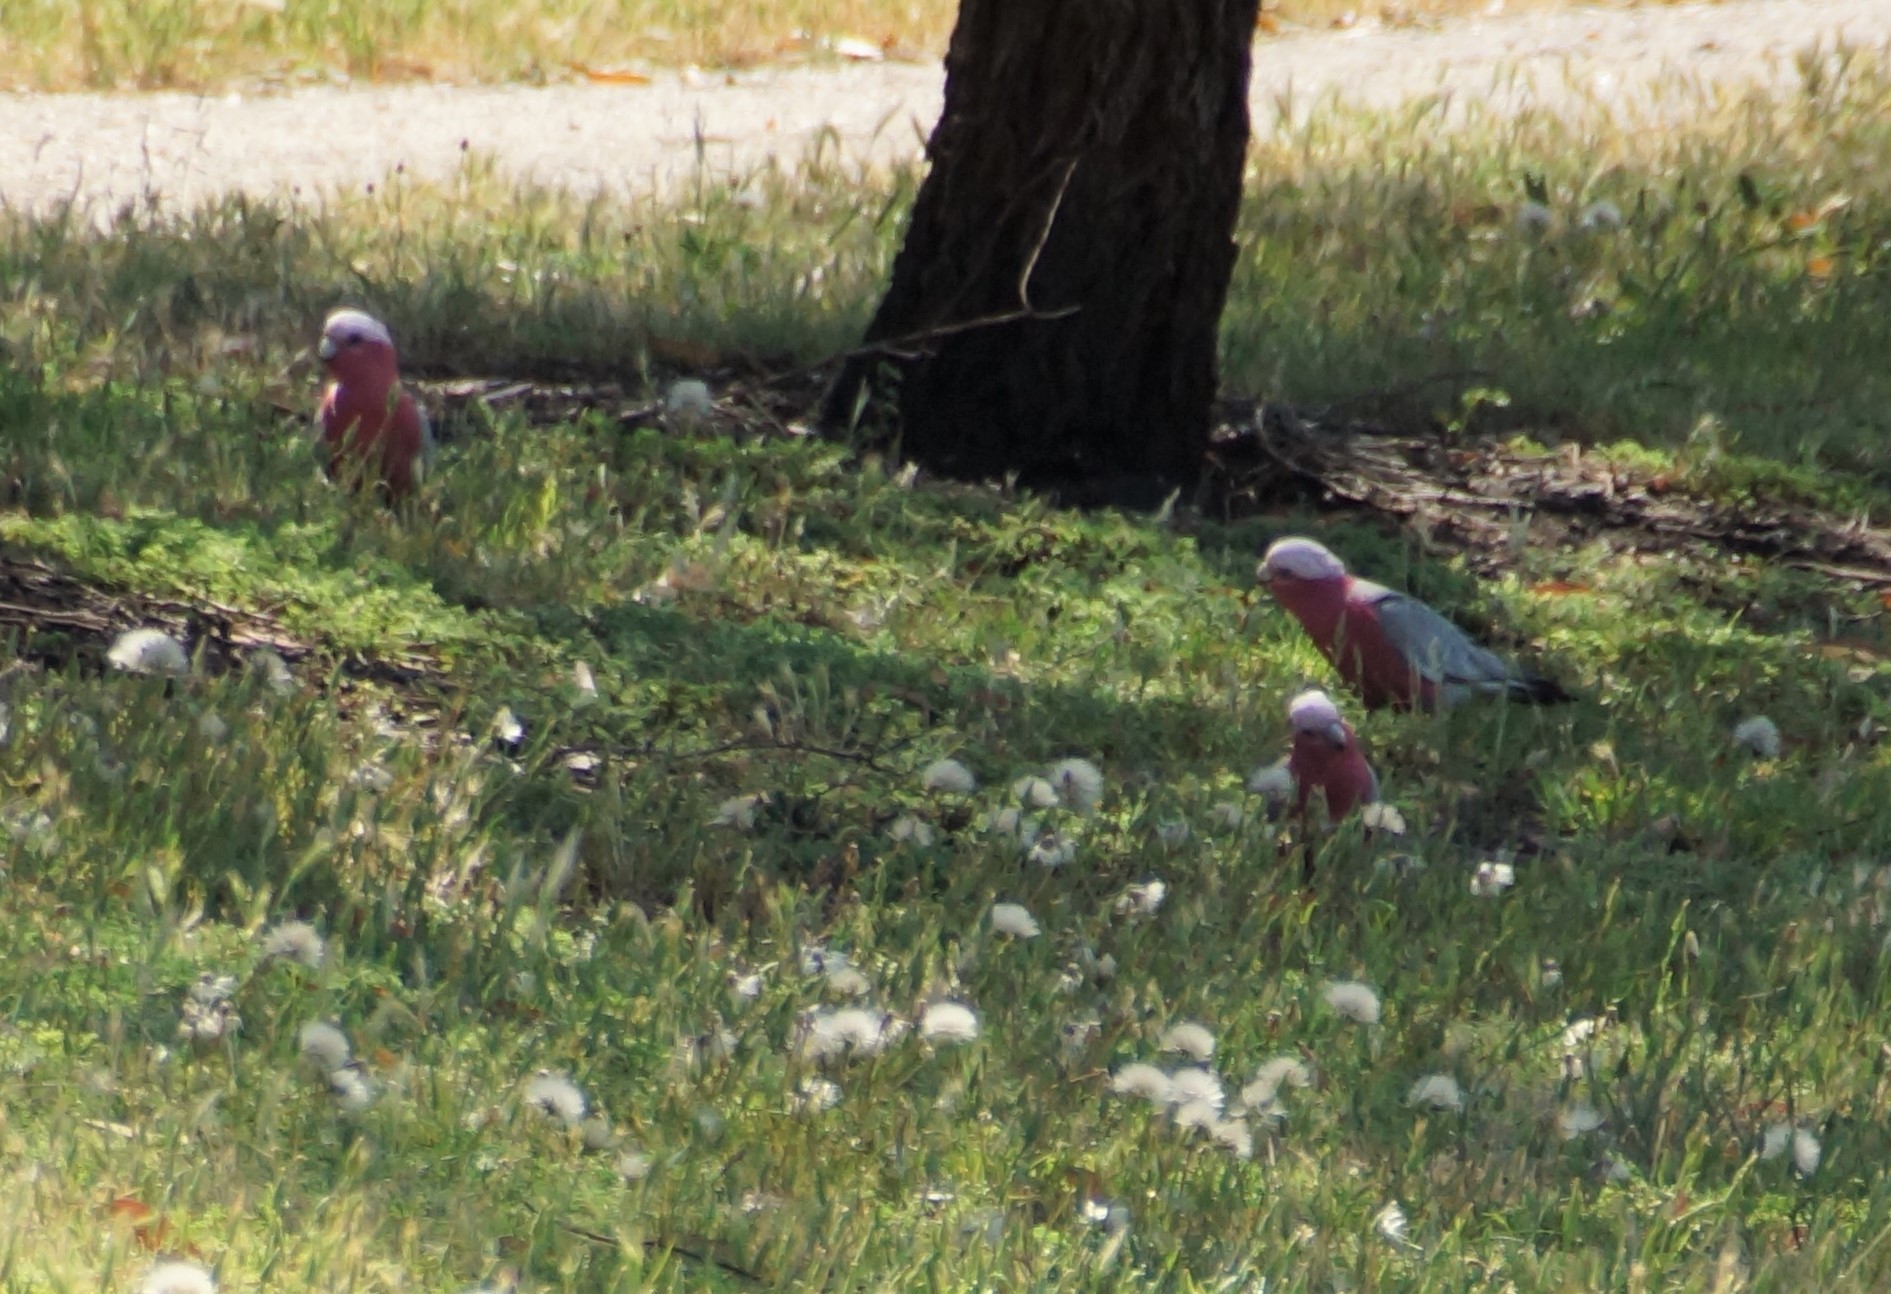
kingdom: Animalia
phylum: Chordata
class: Aves
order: Psittaciformes
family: Psittacidae
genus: Eolophus
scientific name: Eolophus roseicapilla
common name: Galah
